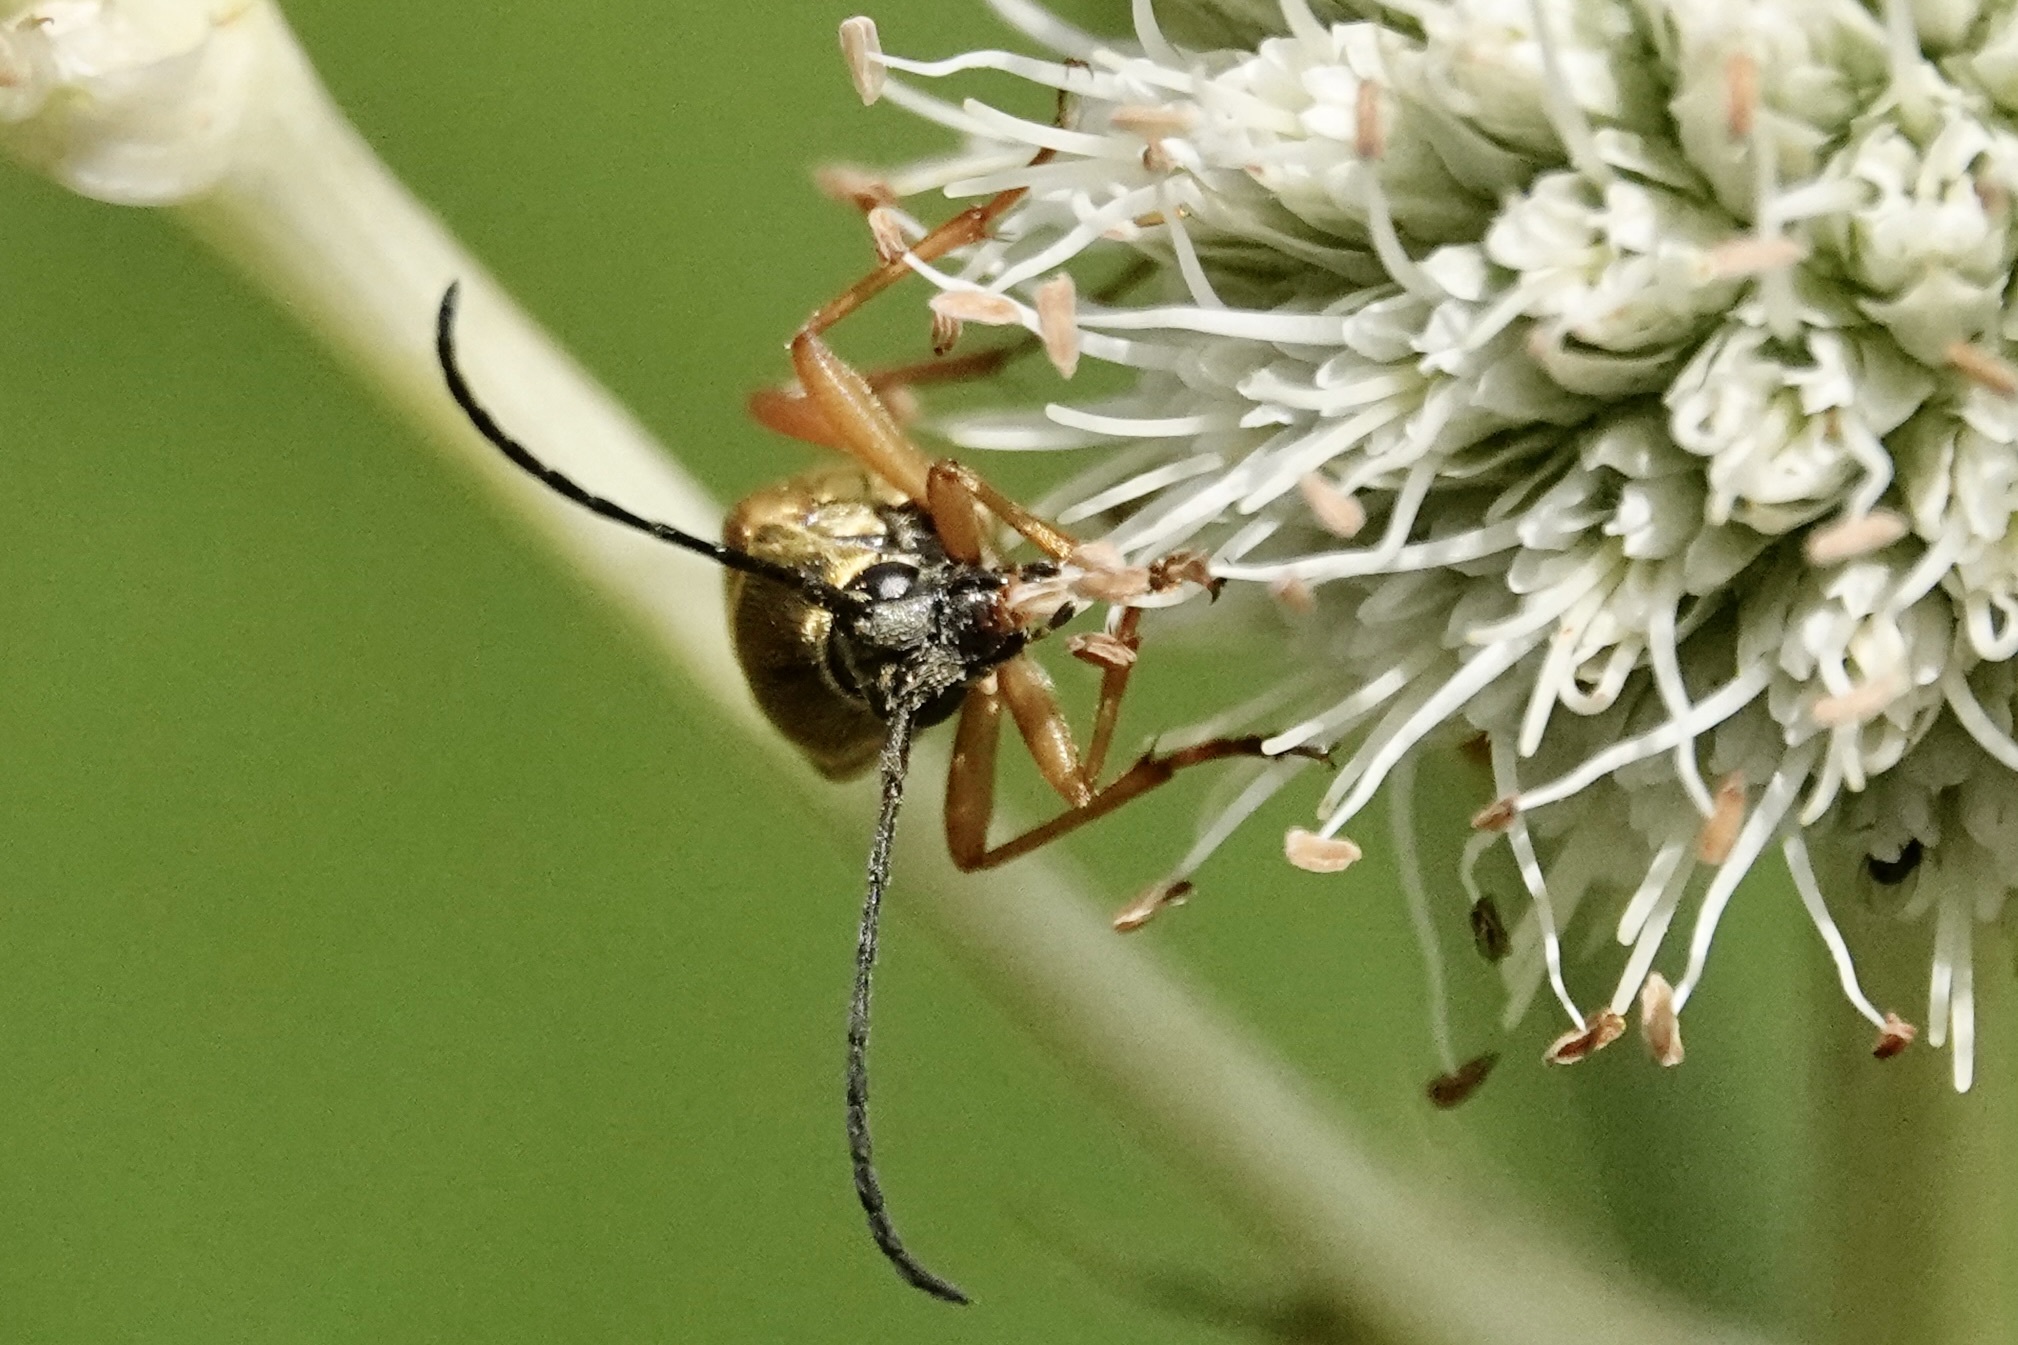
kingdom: Animalia
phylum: Arthropoda
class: Insecta
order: Coleoptera
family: Cerambycidae
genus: Typocerus
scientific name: Typocerus velutinus
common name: Banded longhorn beetle
